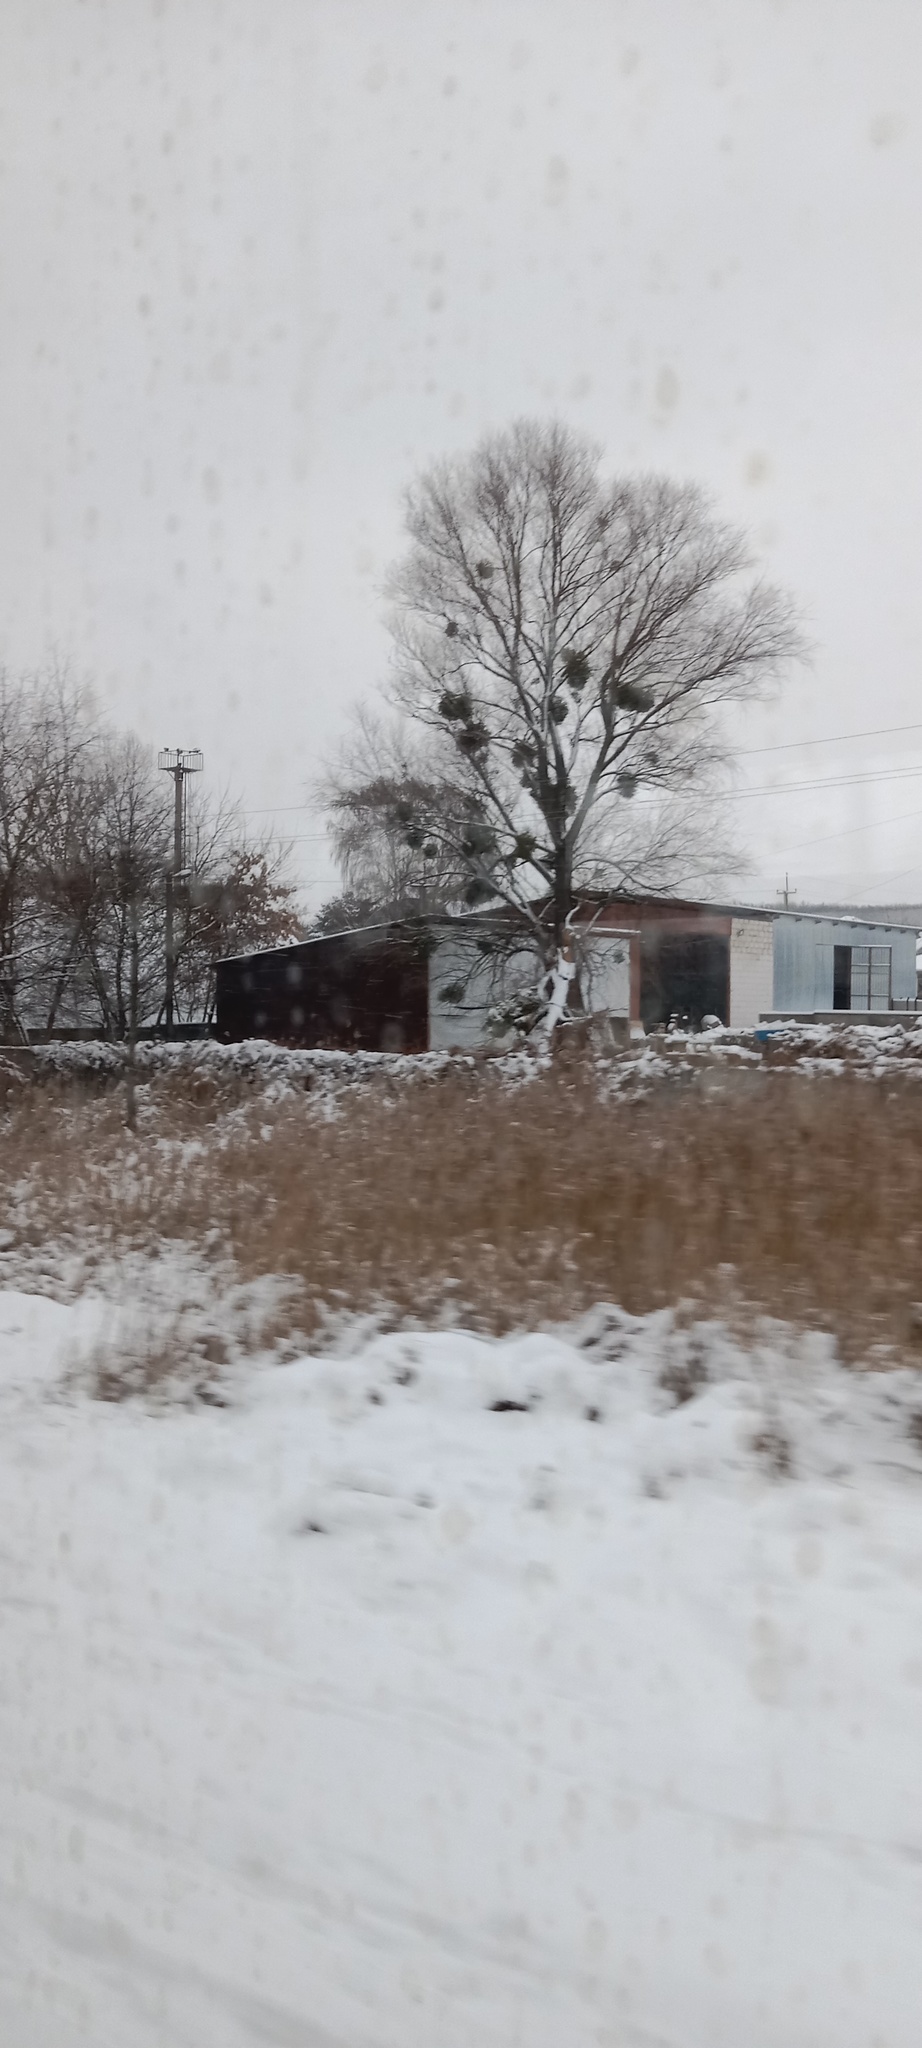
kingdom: Plantae
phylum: Tracheophyta
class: Magnoliopsida
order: Santalales
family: Viscaceae
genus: Viscum
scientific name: Viscum album
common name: Mistletoe
